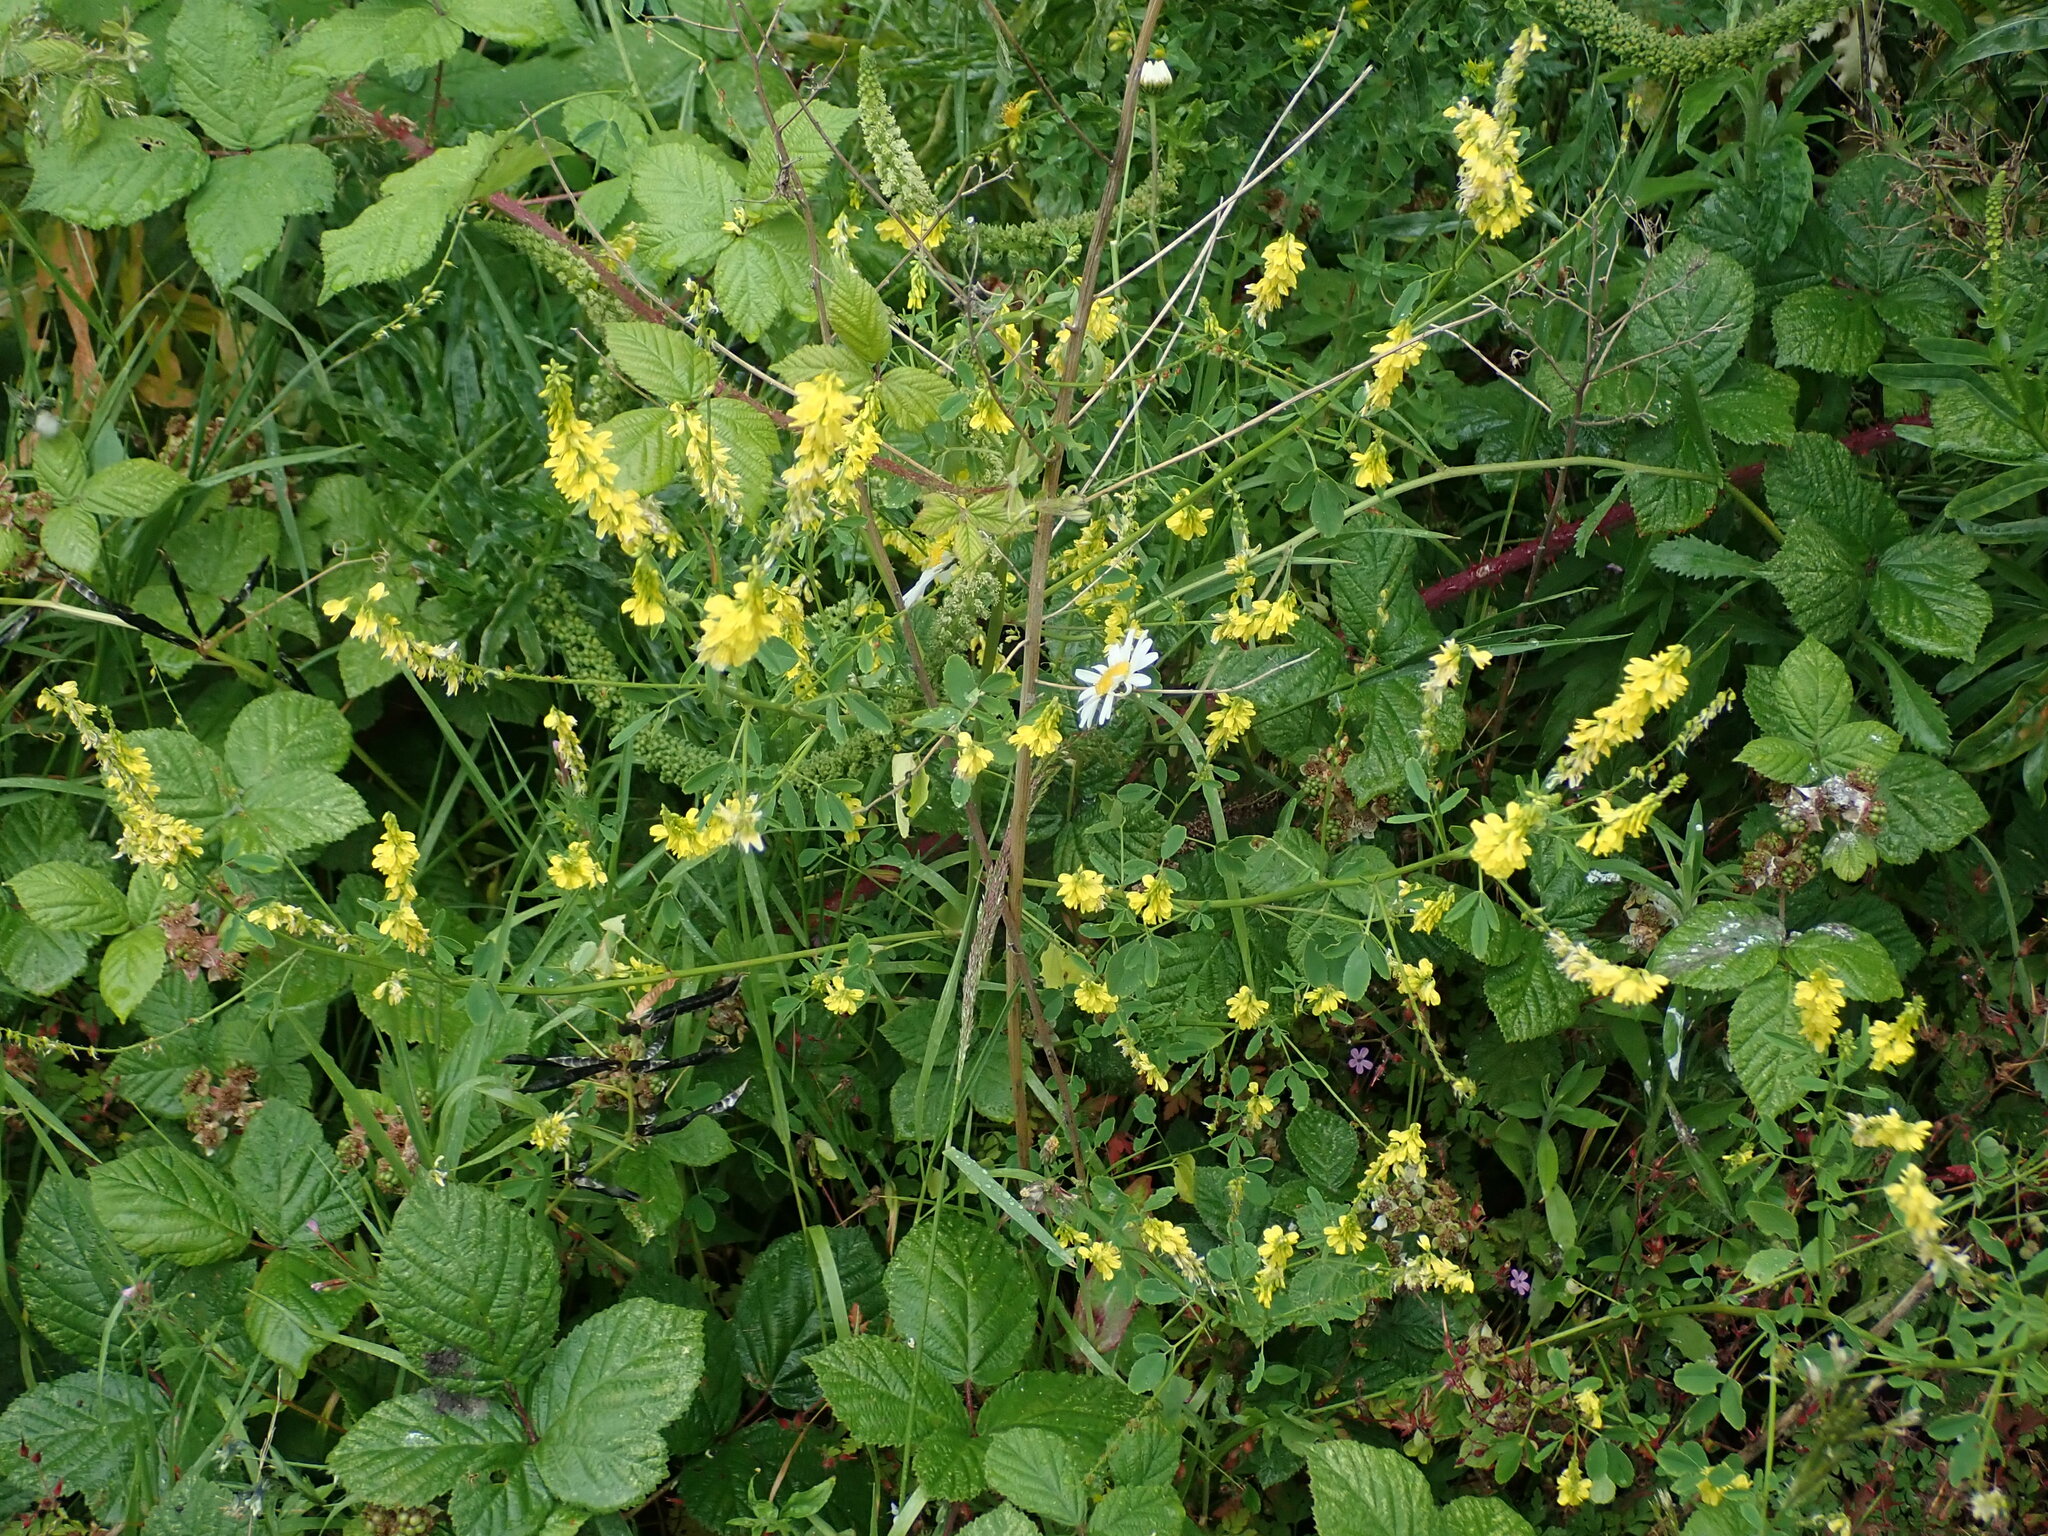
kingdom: Plantae
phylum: Tracheophyta
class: Magnoliopsida
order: Fabales
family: Fabaceae
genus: Melilotus
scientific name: Melilotus officinalis
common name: Sweetclover
